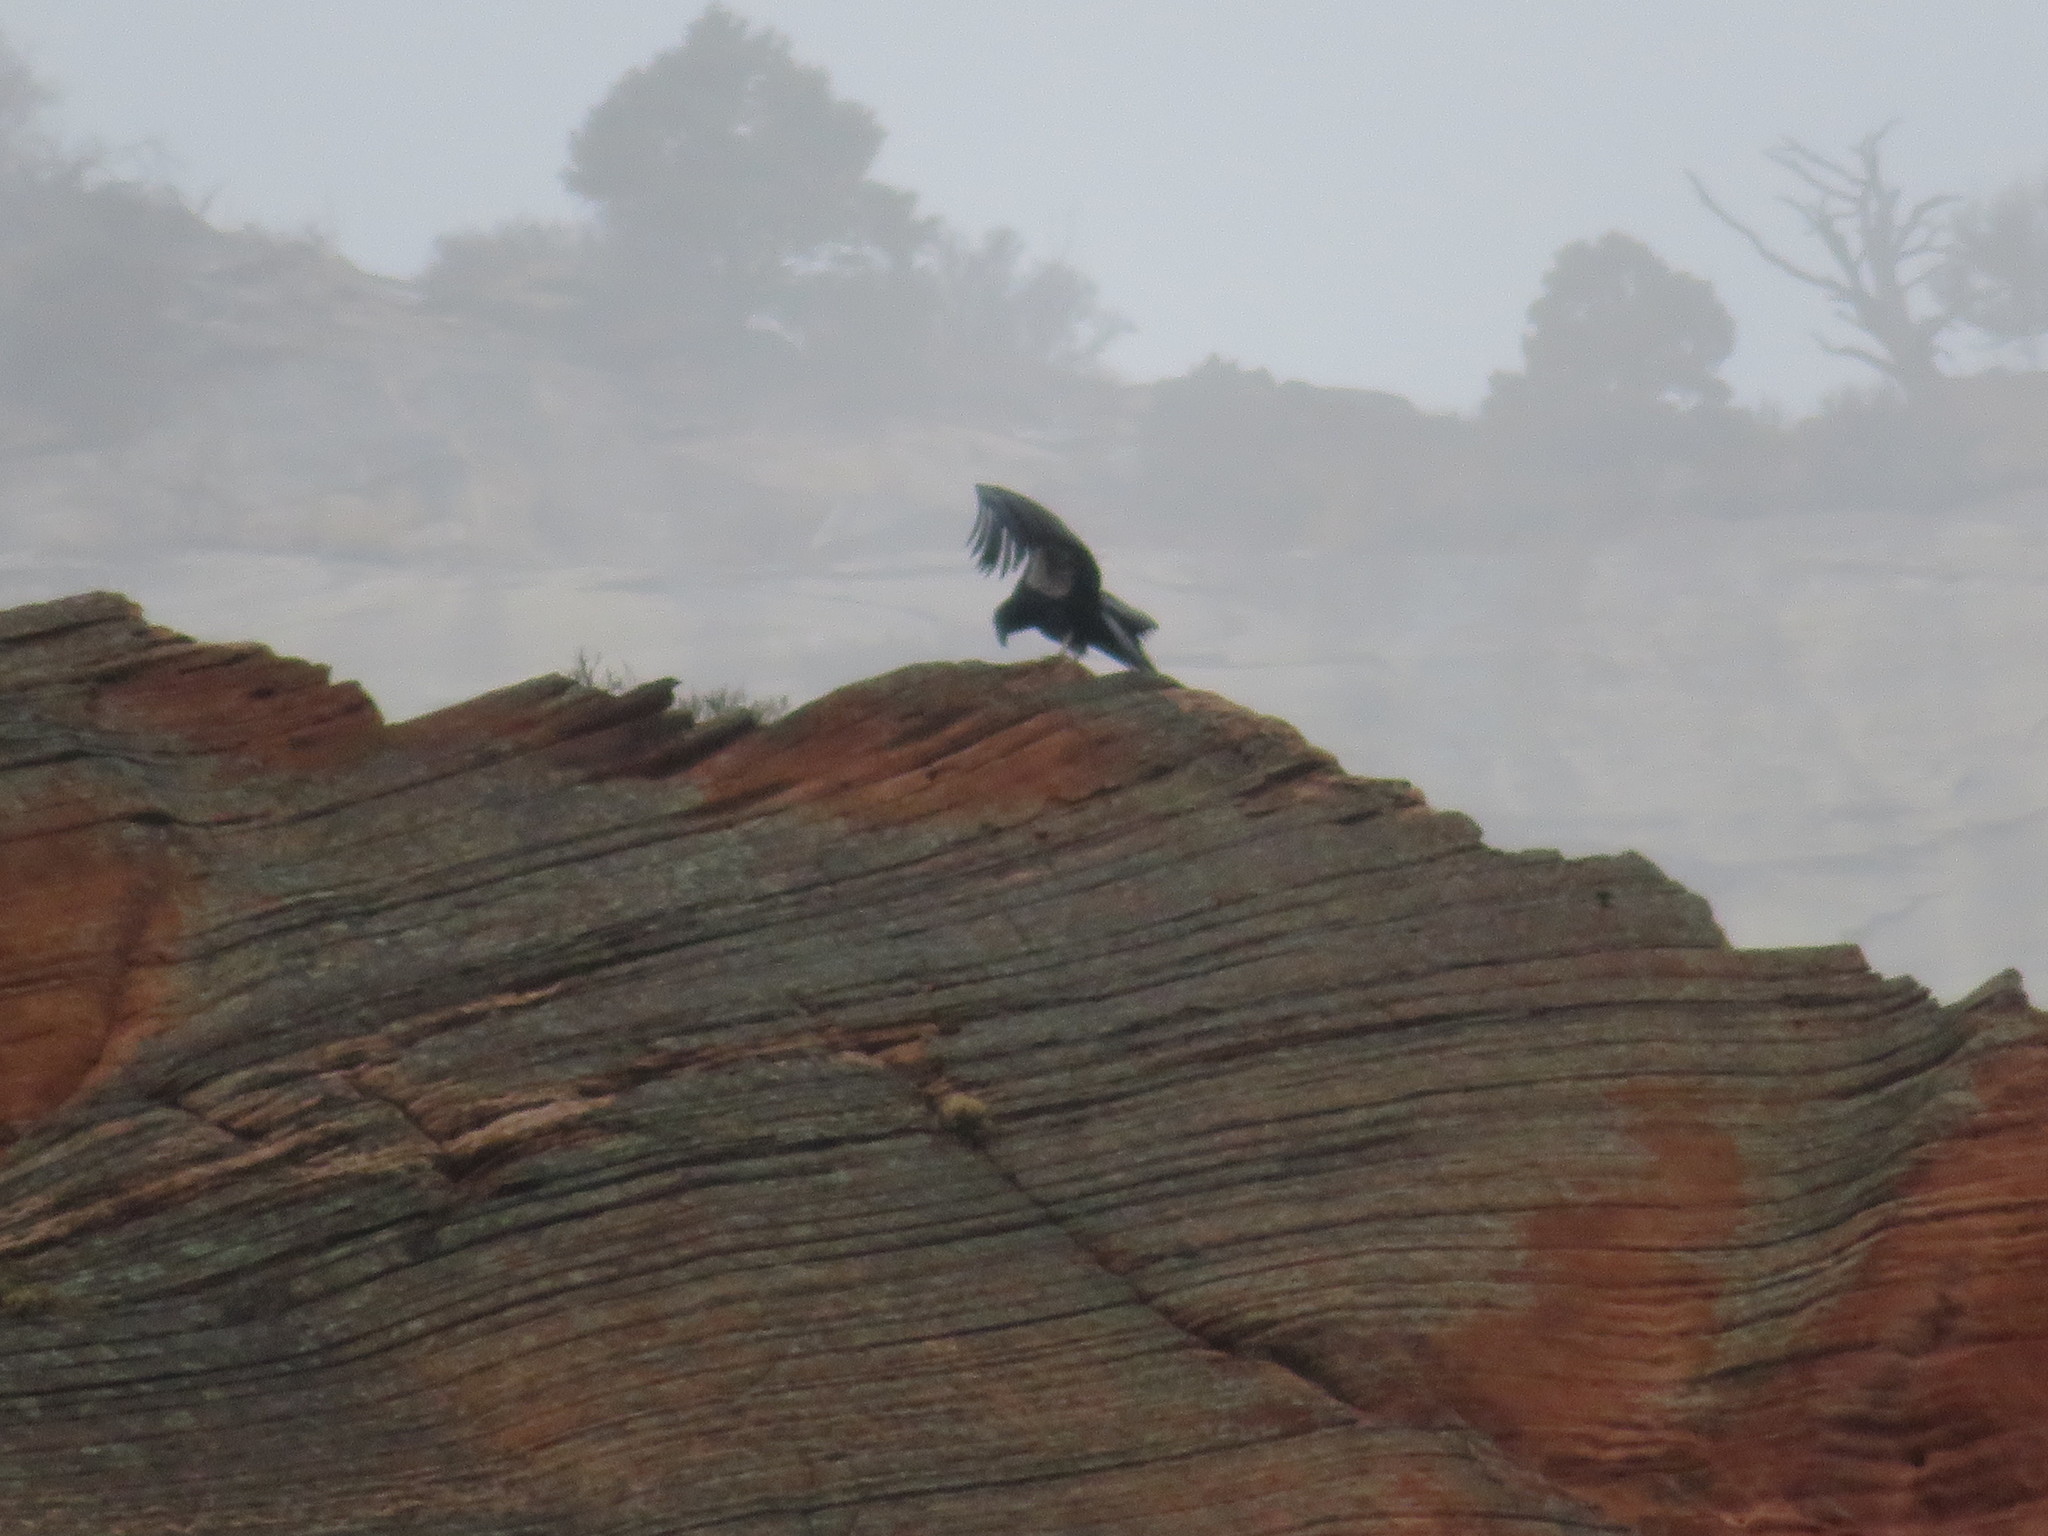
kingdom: Animalia
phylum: Chordata
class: Aves
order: Accipitriformes
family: Cathartidae
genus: Gymnogyps
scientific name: Gymnogyps californianus
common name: California condor
